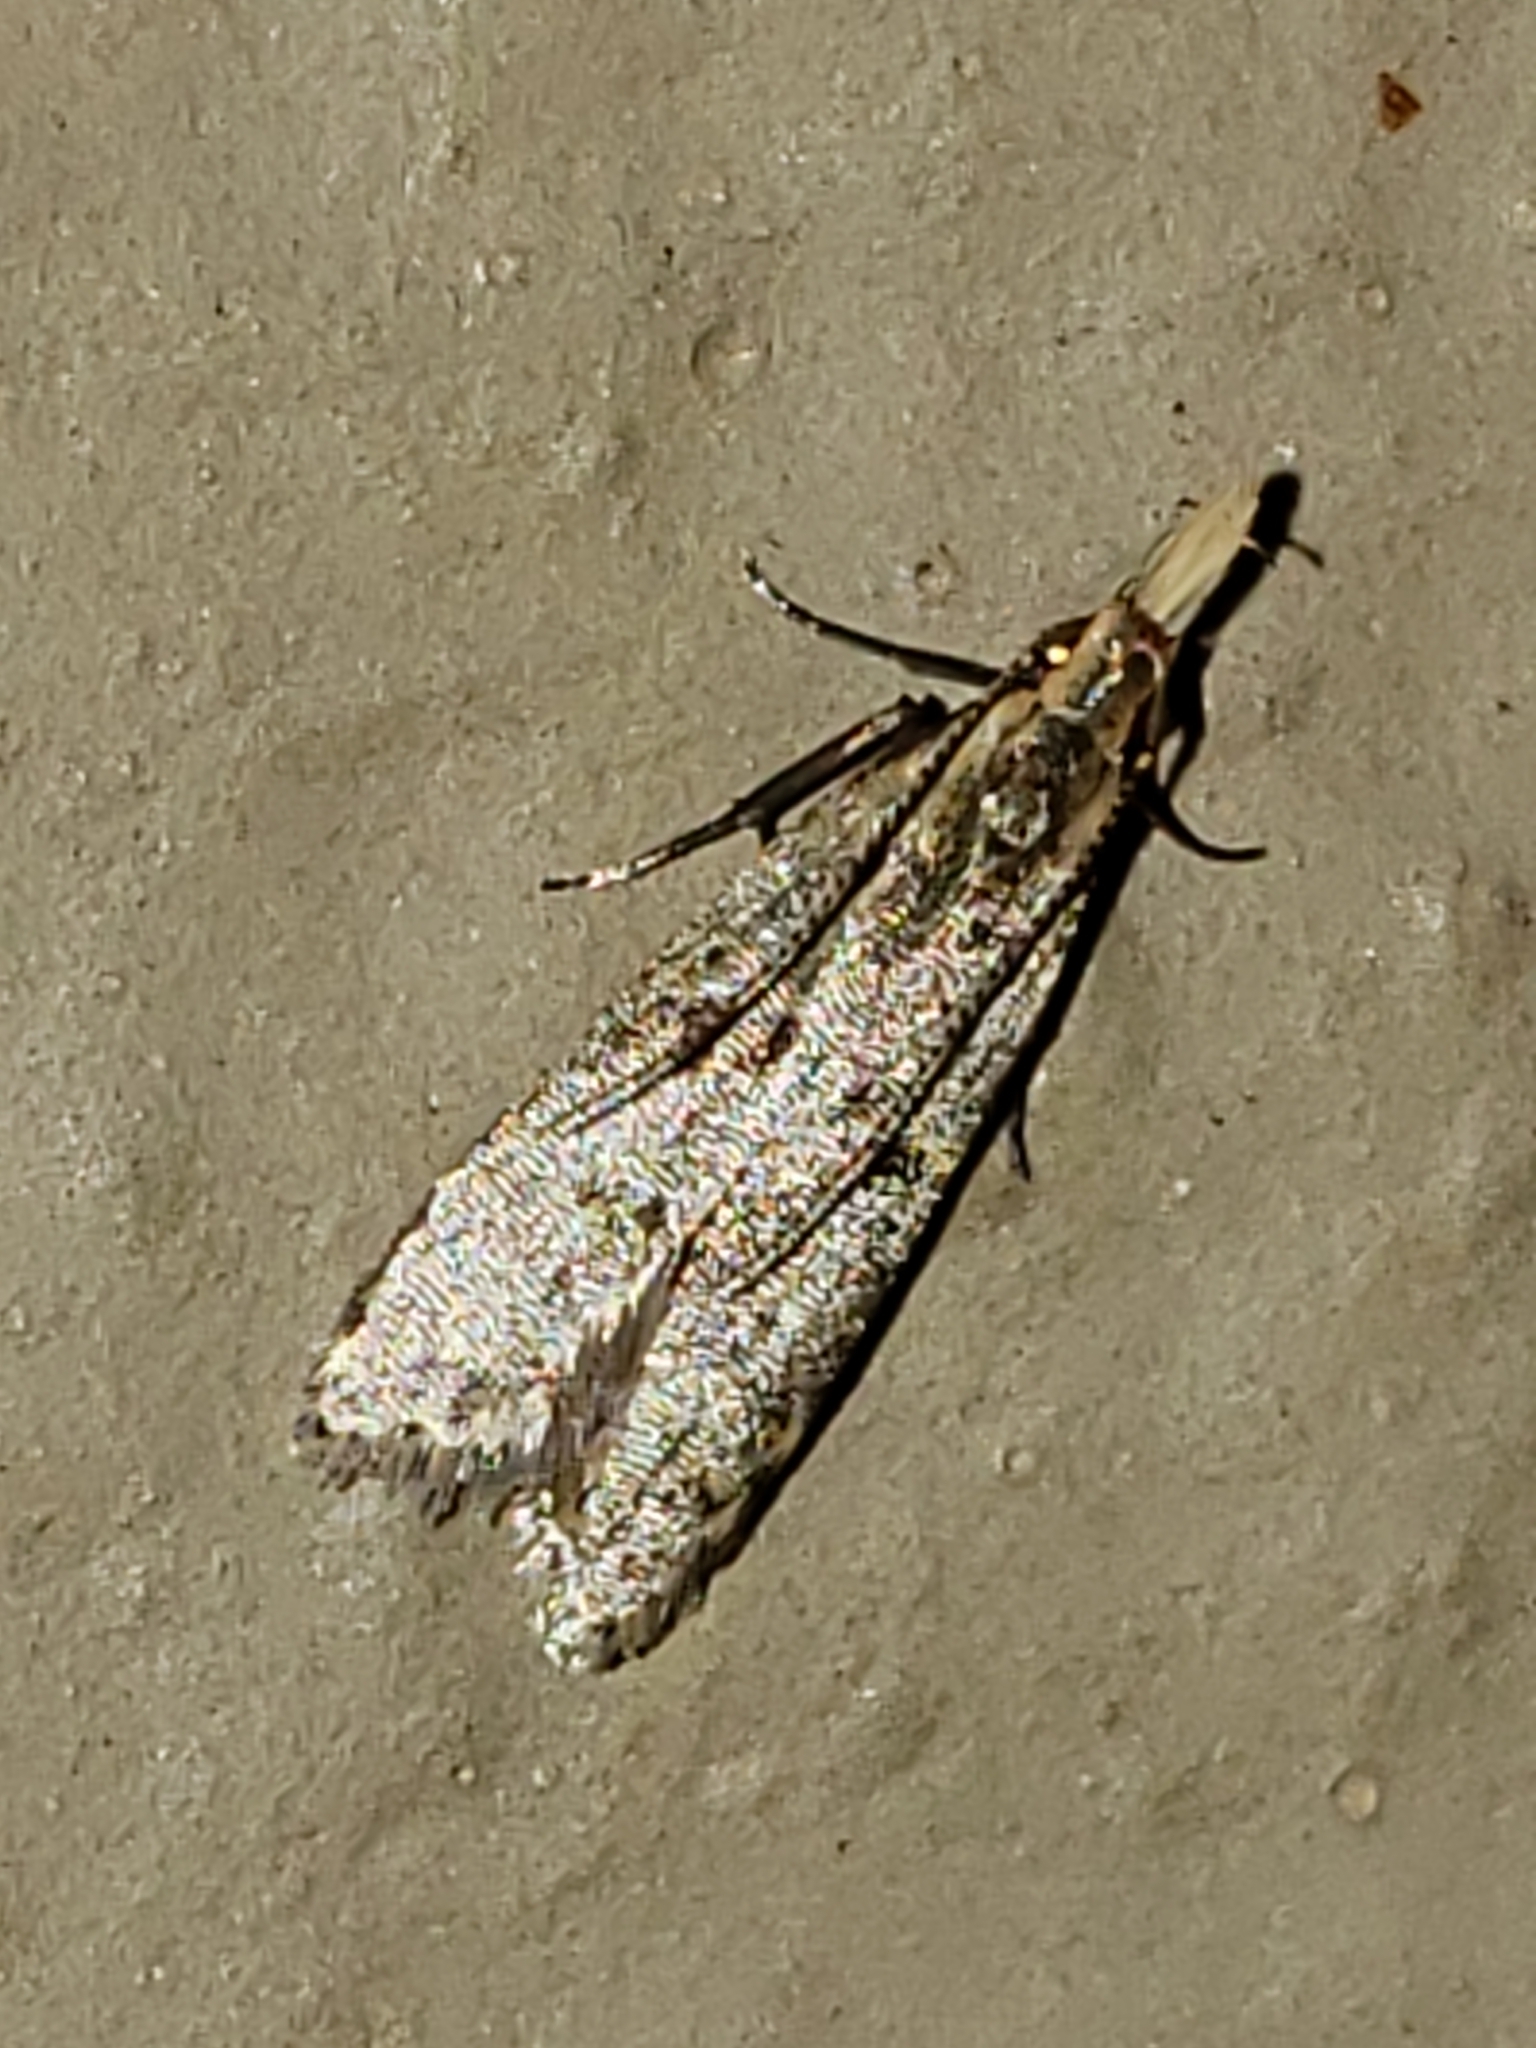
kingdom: Animalia
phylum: Arthropoda
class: Insecta
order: Lepidoptera
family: Gelechiidae
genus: Dichomeris
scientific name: Dichomeris punctipennella
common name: Many-spotted dichomeris moth
